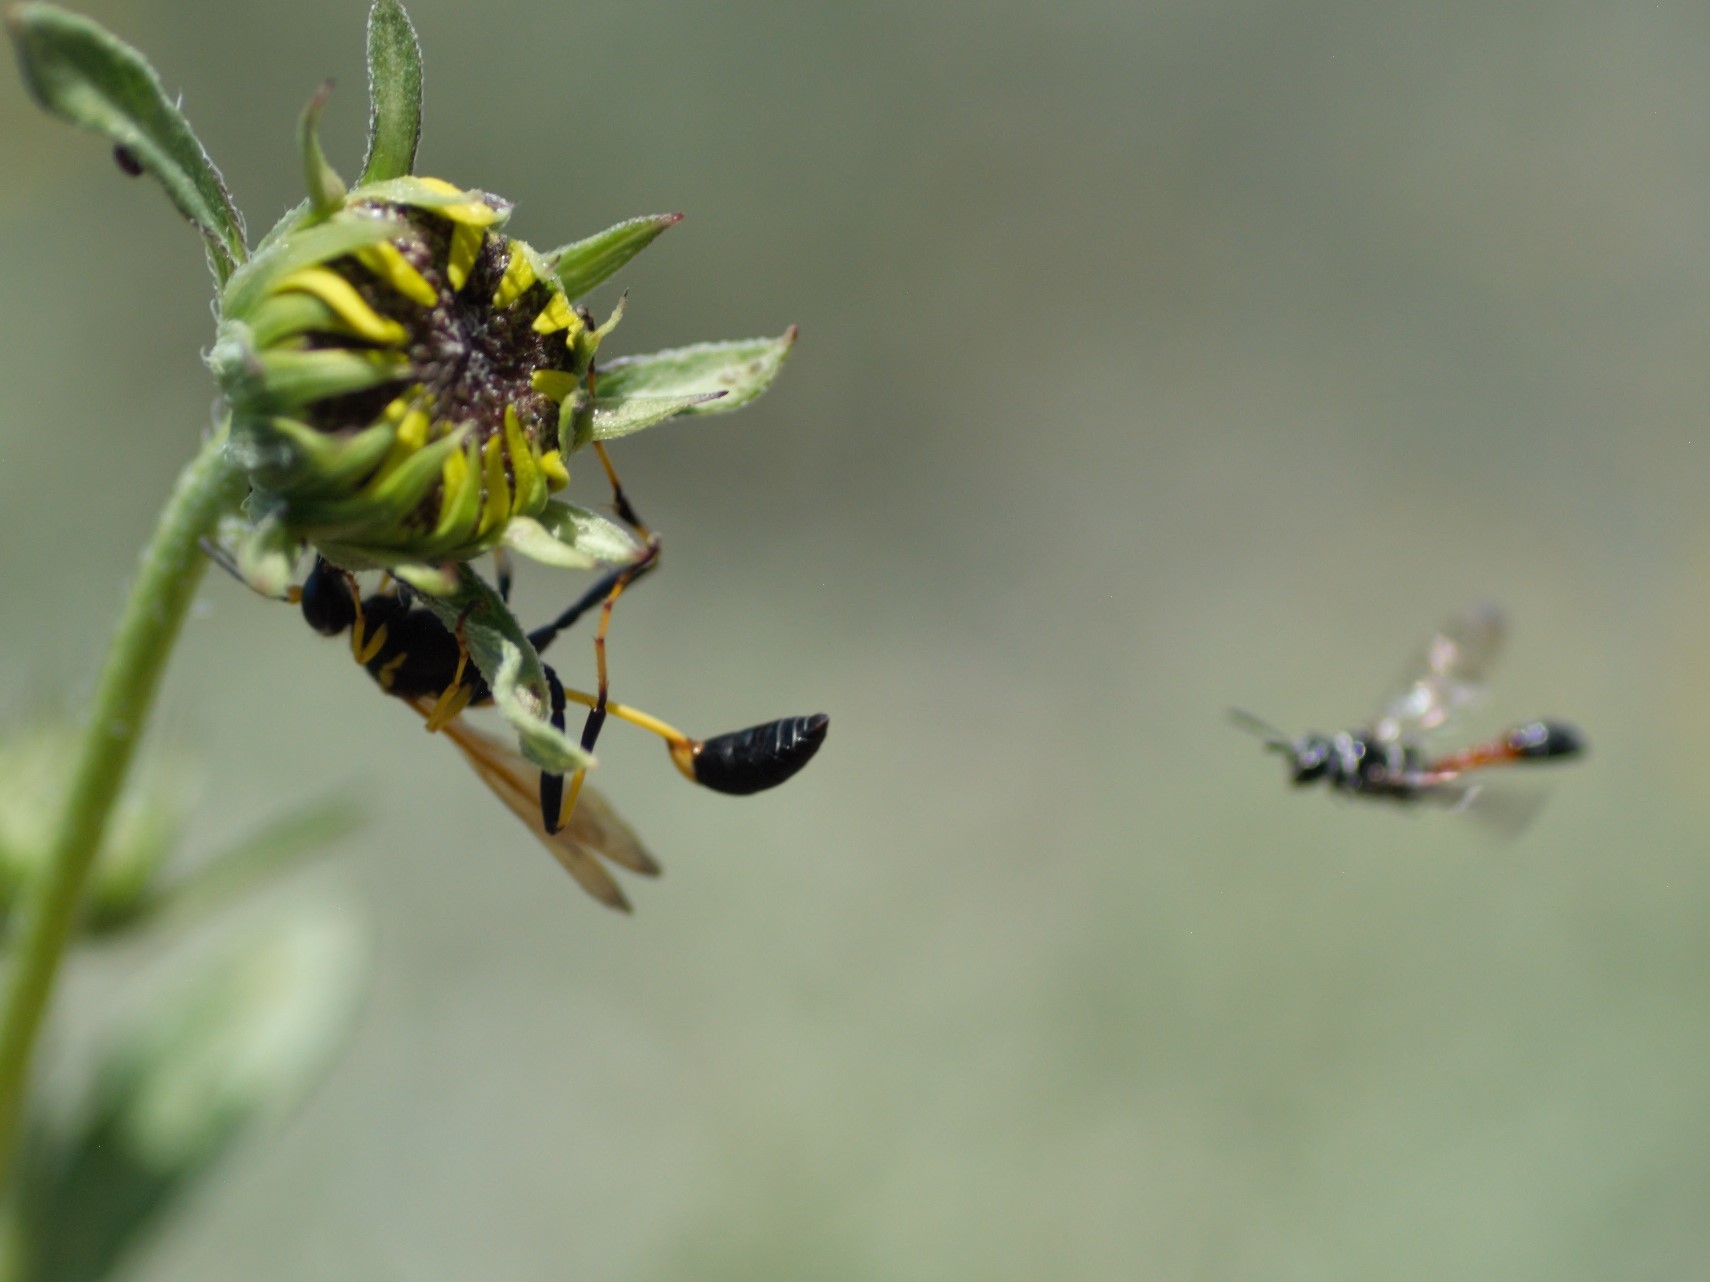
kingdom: Animalia
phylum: Arthropoda
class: Insecta
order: Hymenoptera
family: Sphecidae
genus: Sceliphron
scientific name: Sceliphron caementarium
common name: Mud dauber
